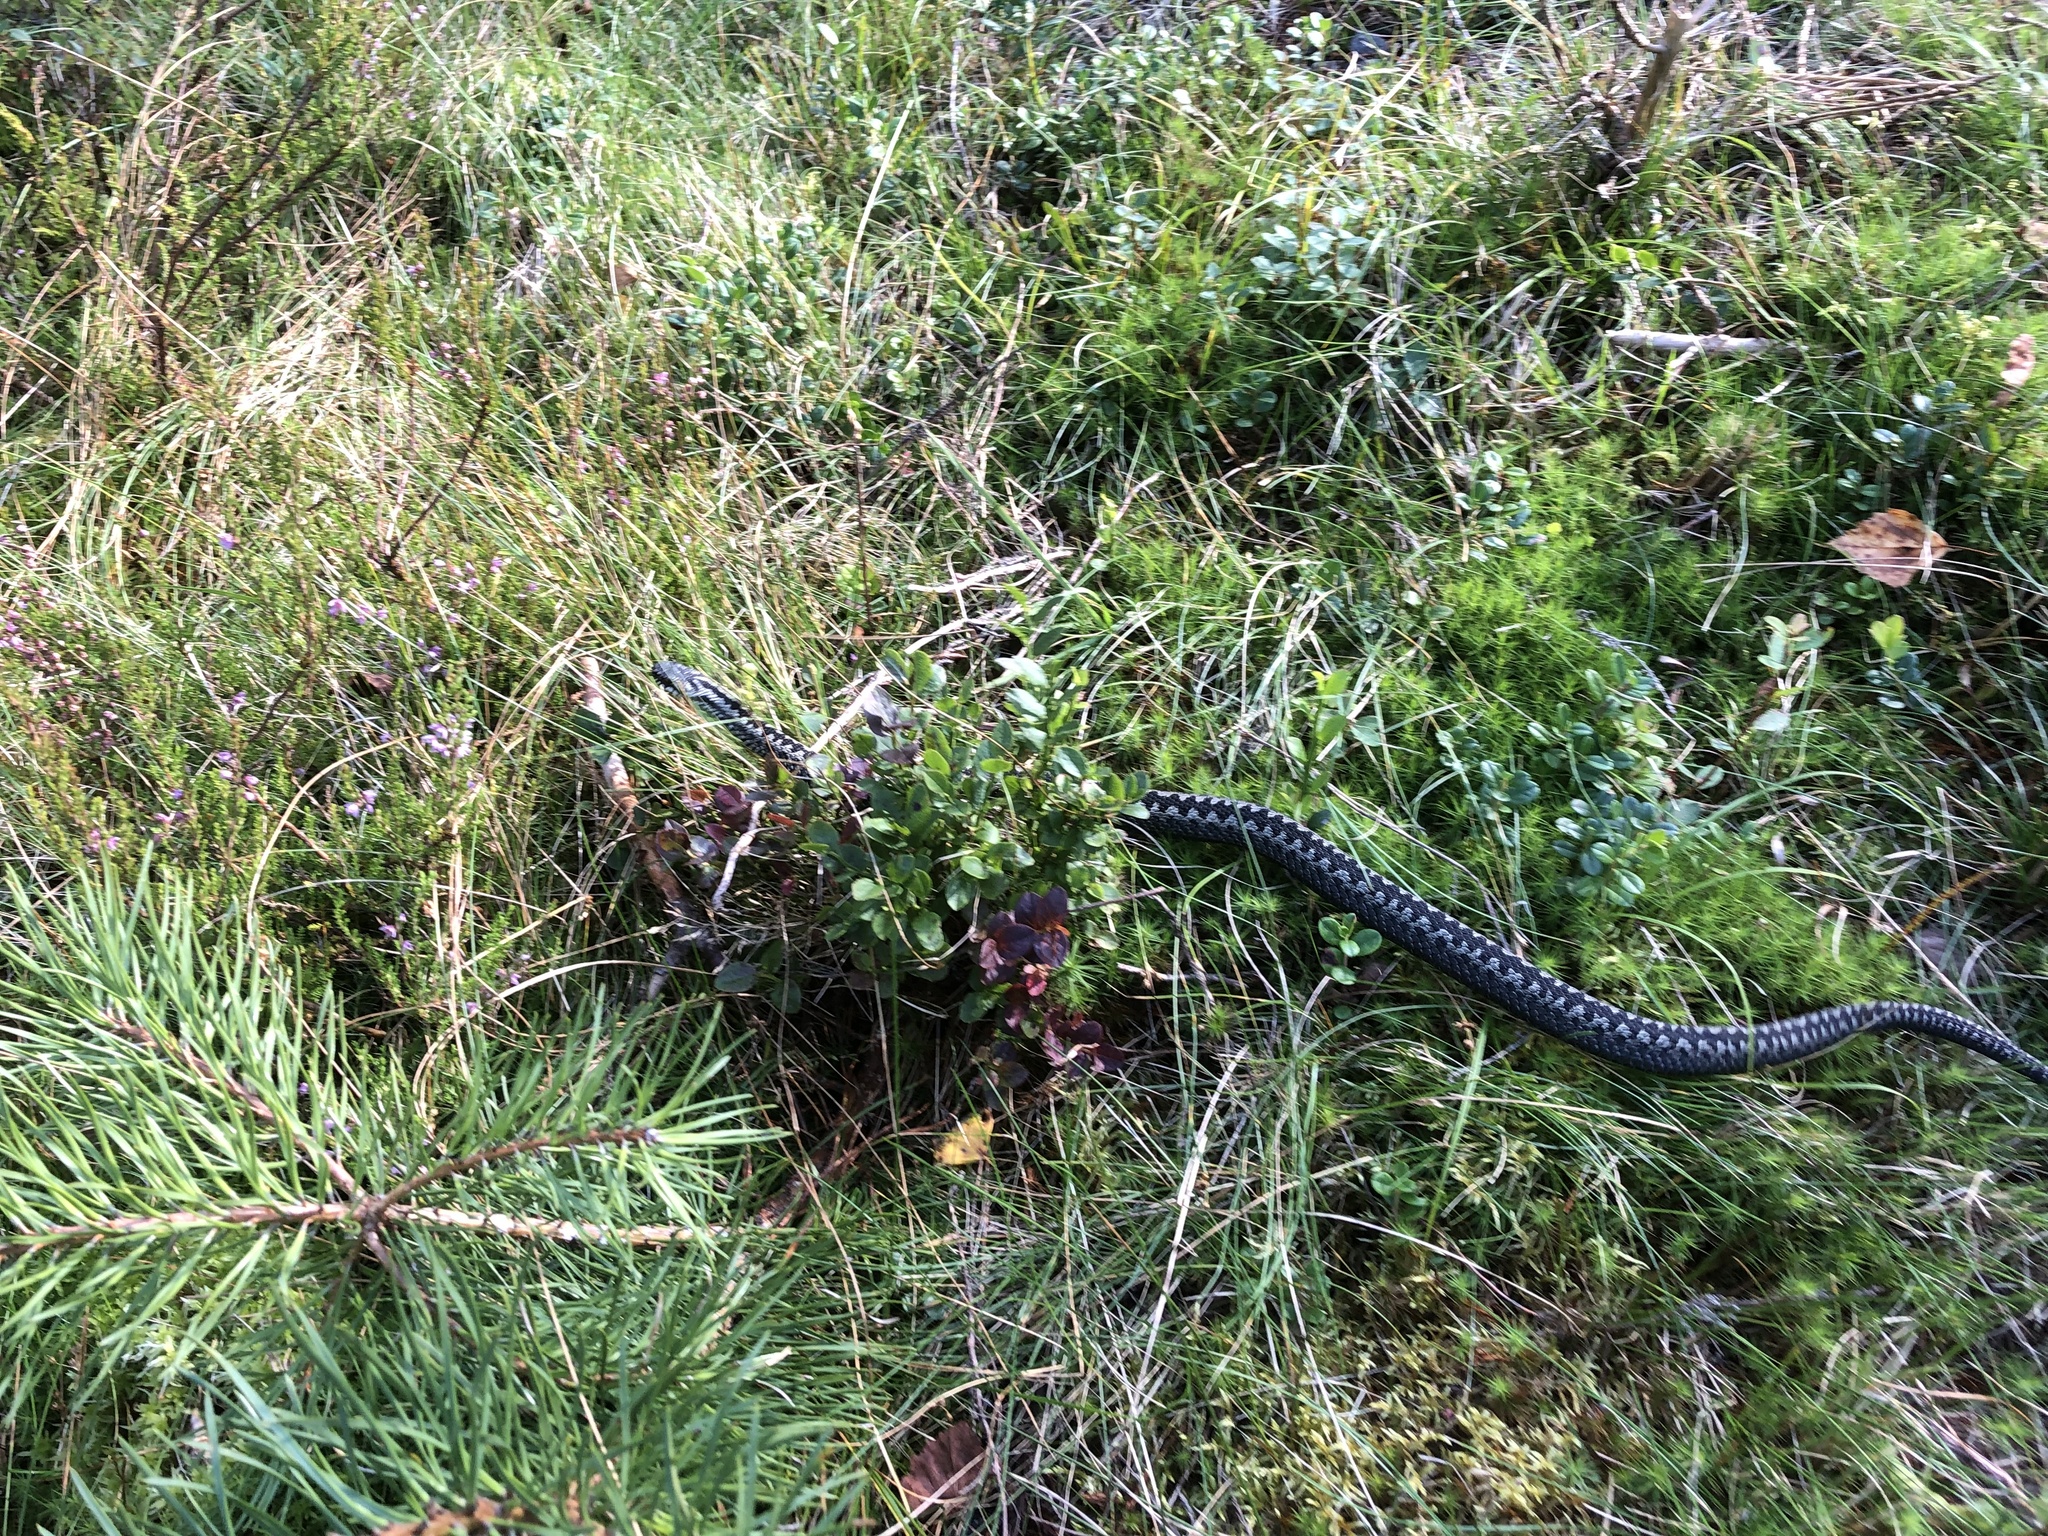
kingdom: Animalia
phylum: Chordata
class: Squamata
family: Viperidae
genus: Vipera
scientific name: Vipera berus
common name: Adder
